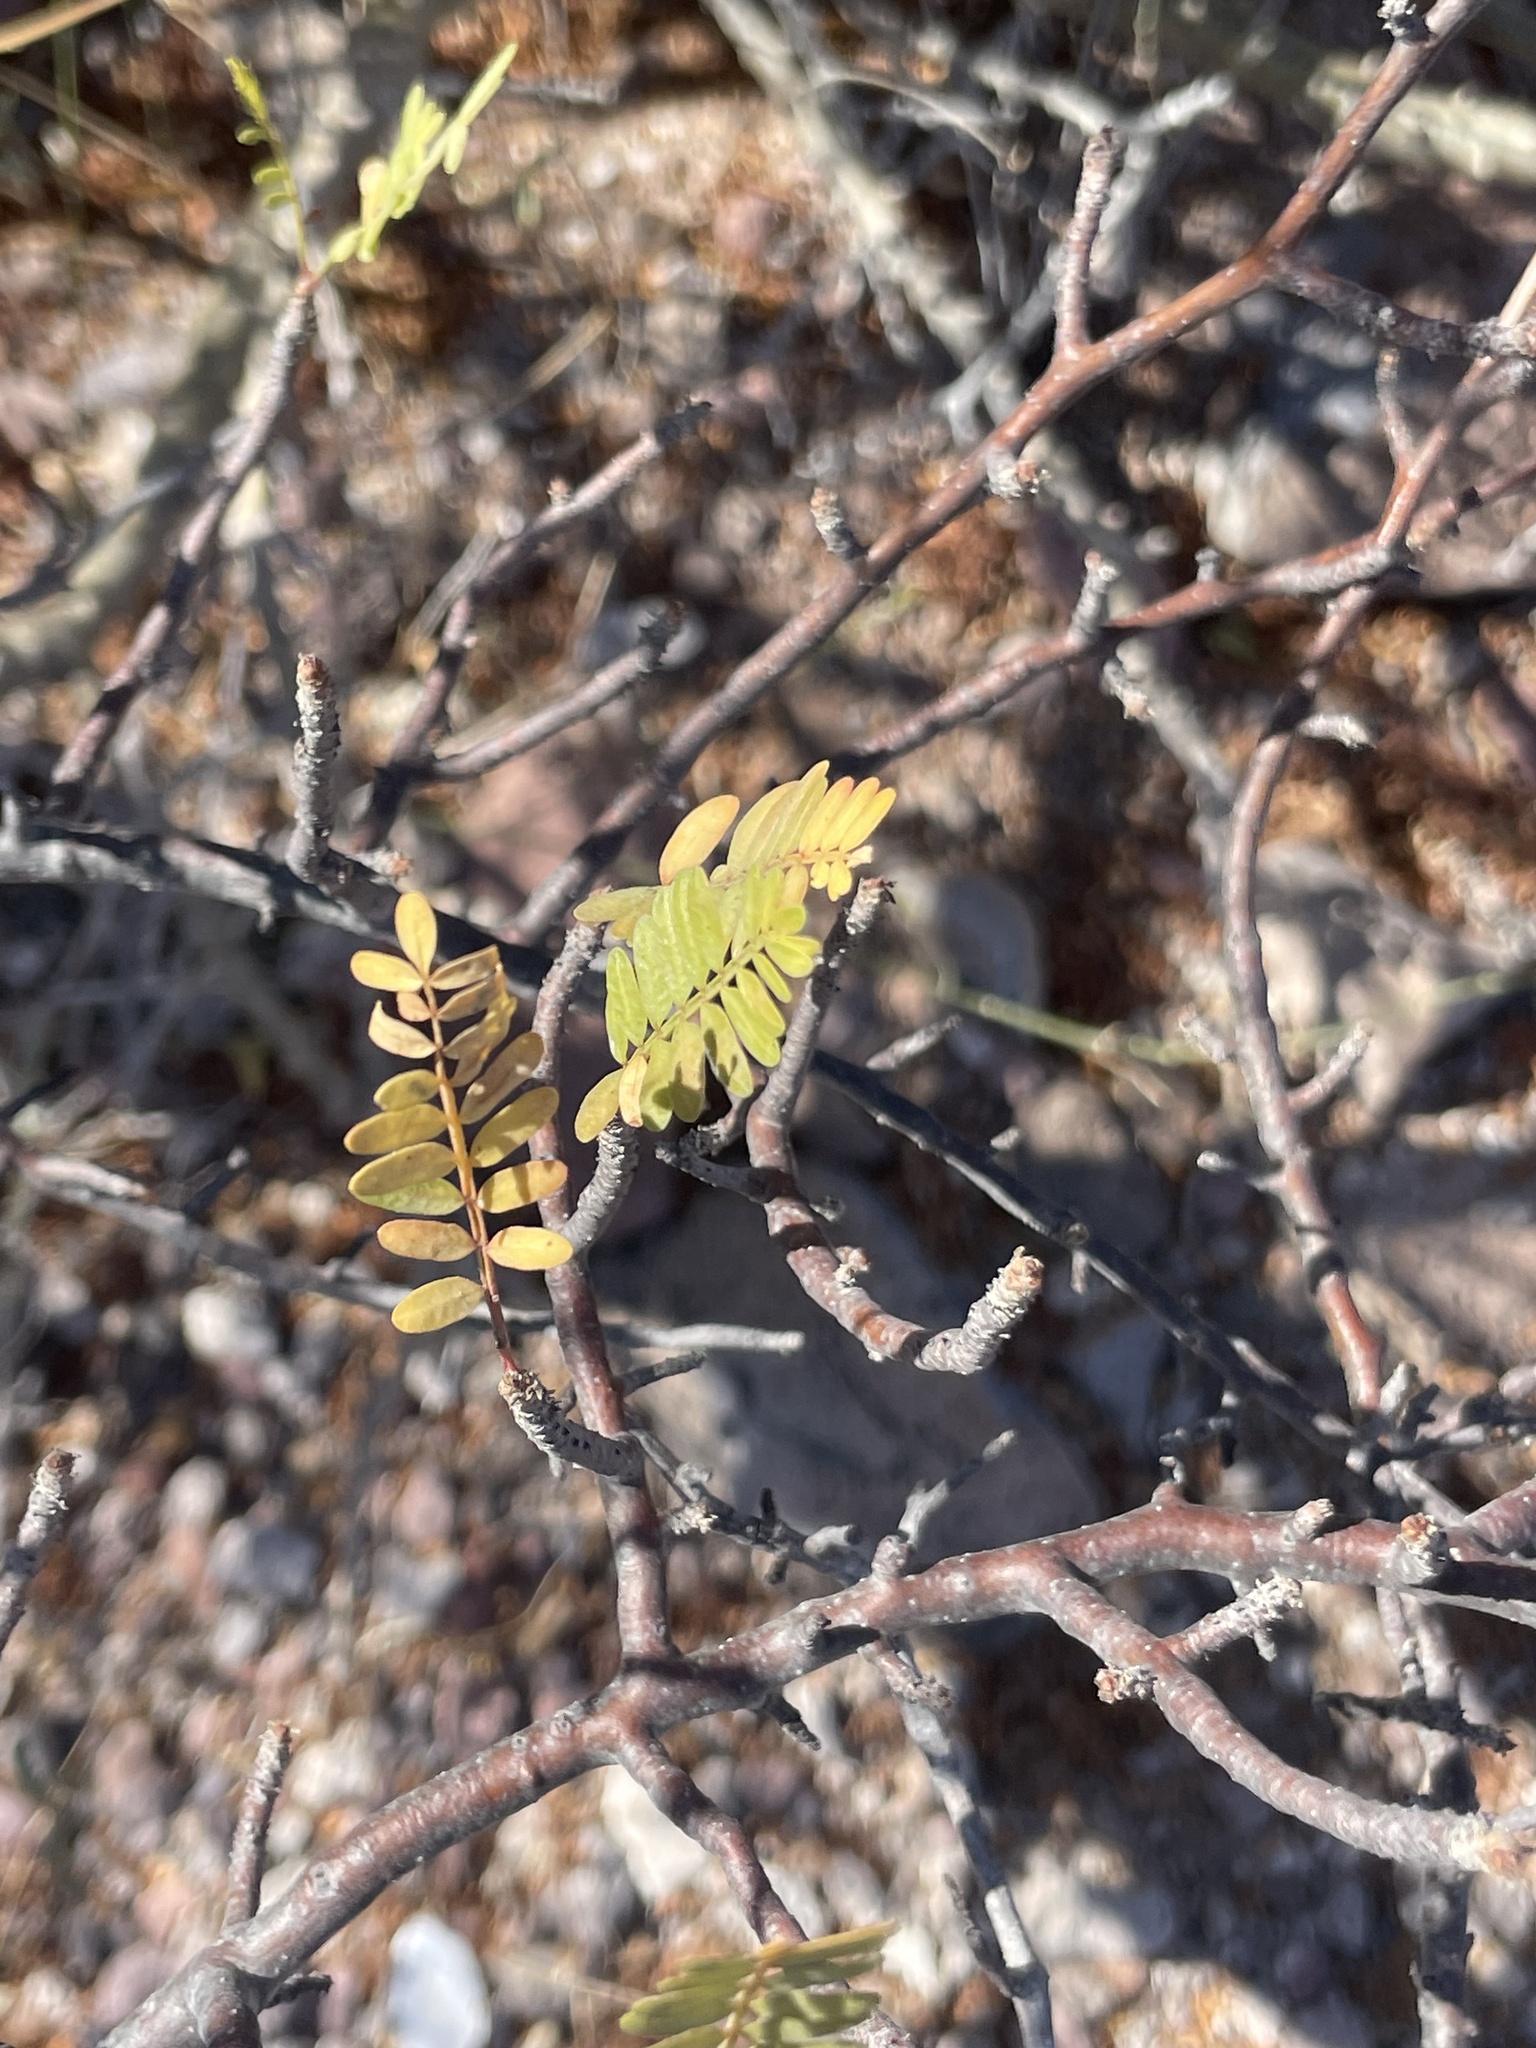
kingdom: Plantae
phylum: Tracheophyta
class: Magnoliopsida
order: Sapindales
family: Burseraceae
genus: Bursera
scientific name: Bursera microphylla
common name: Elephant tree
